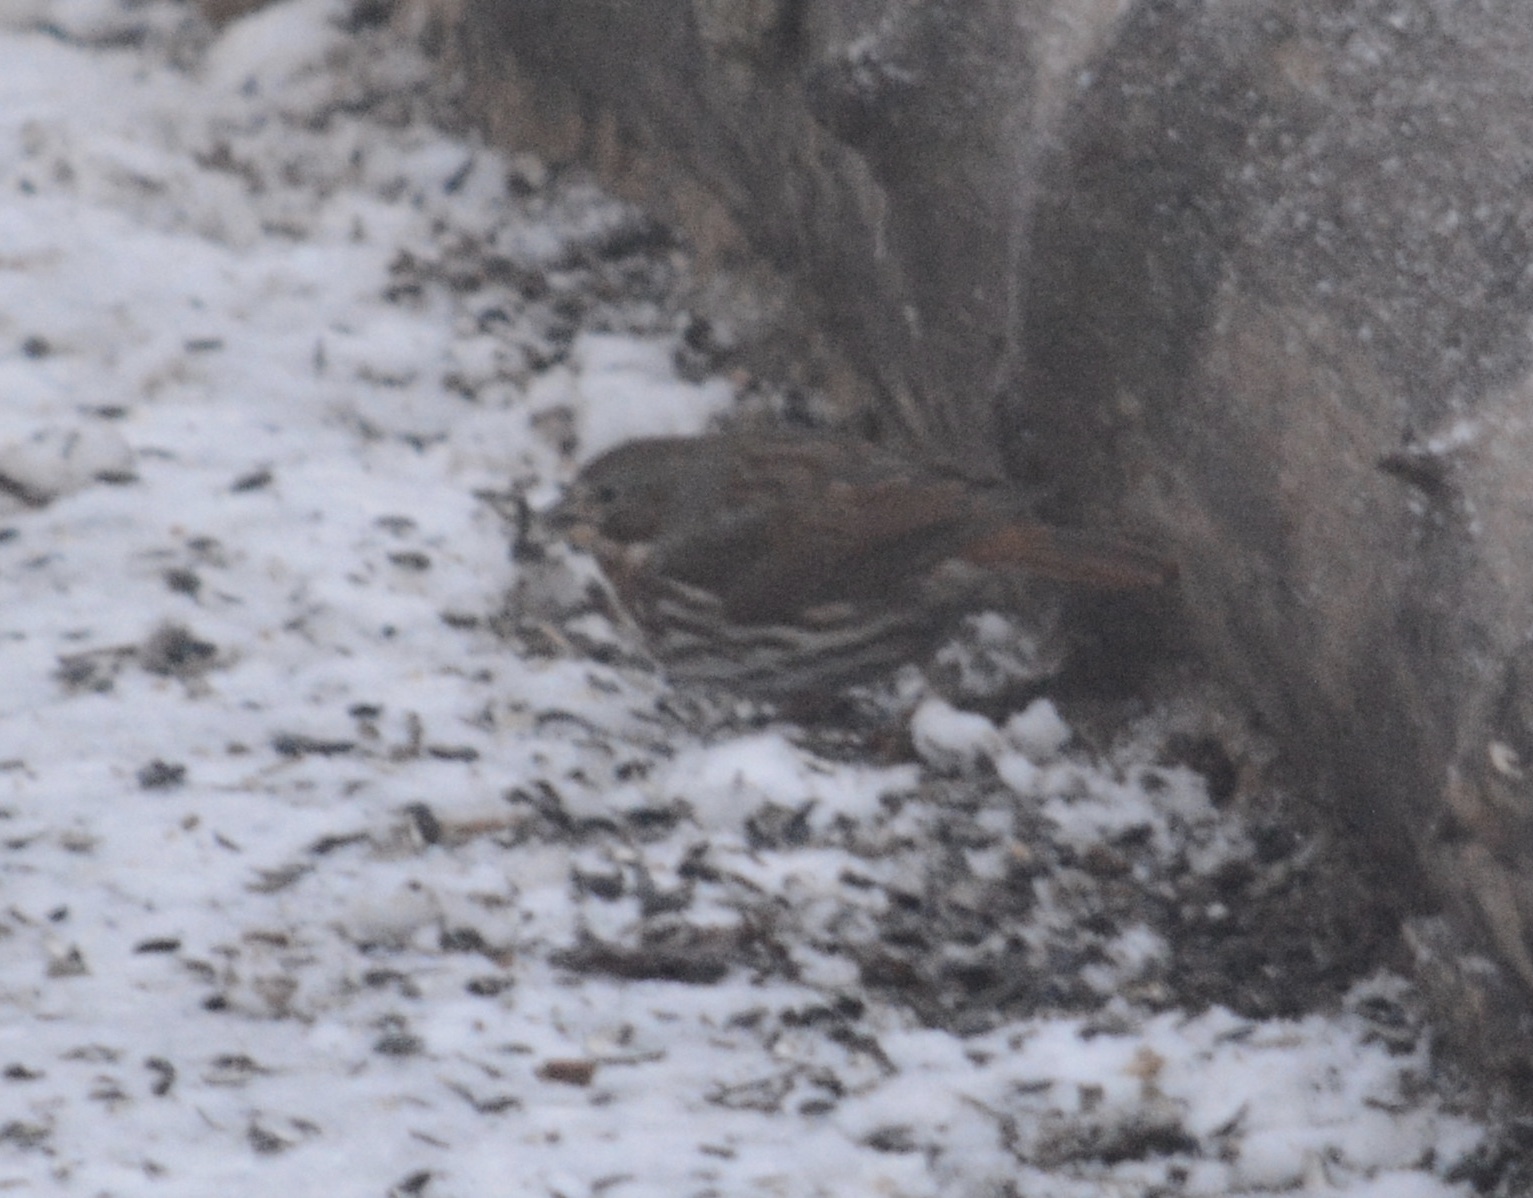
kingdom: Animalia
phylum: Chordata
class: Aves
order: Passeriformes
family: Passerellidae
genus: Passerella
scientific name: Passerella iliaca
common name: Fox sparrow
